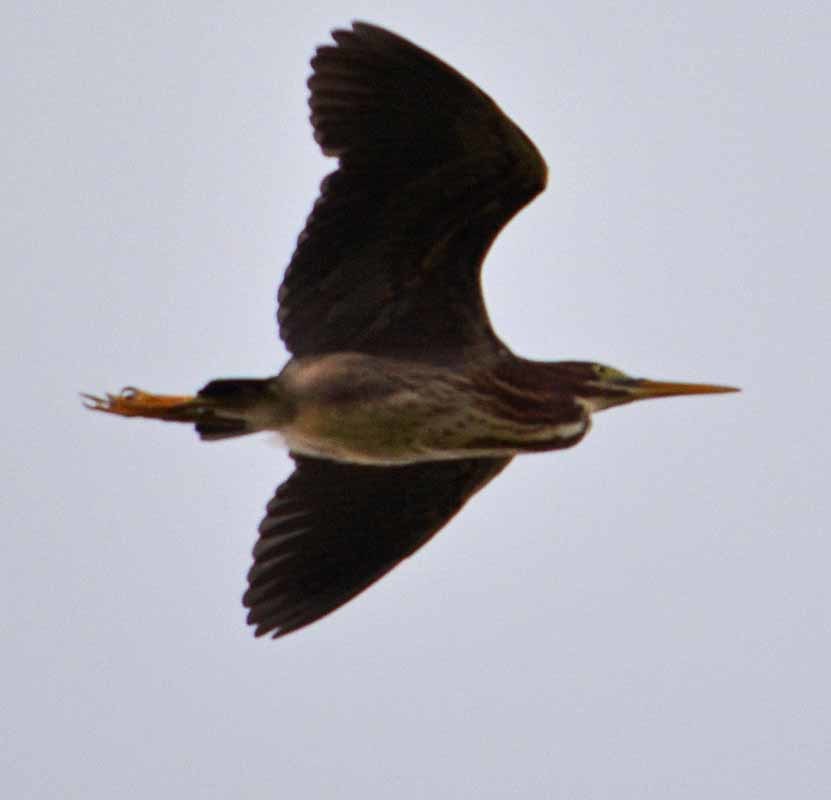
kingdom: Animalia
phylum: Chordata
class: Aves
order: Pelecaniformes
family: Ardeidae
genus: Butorides
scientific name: Butorides virescens
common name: Green heron
